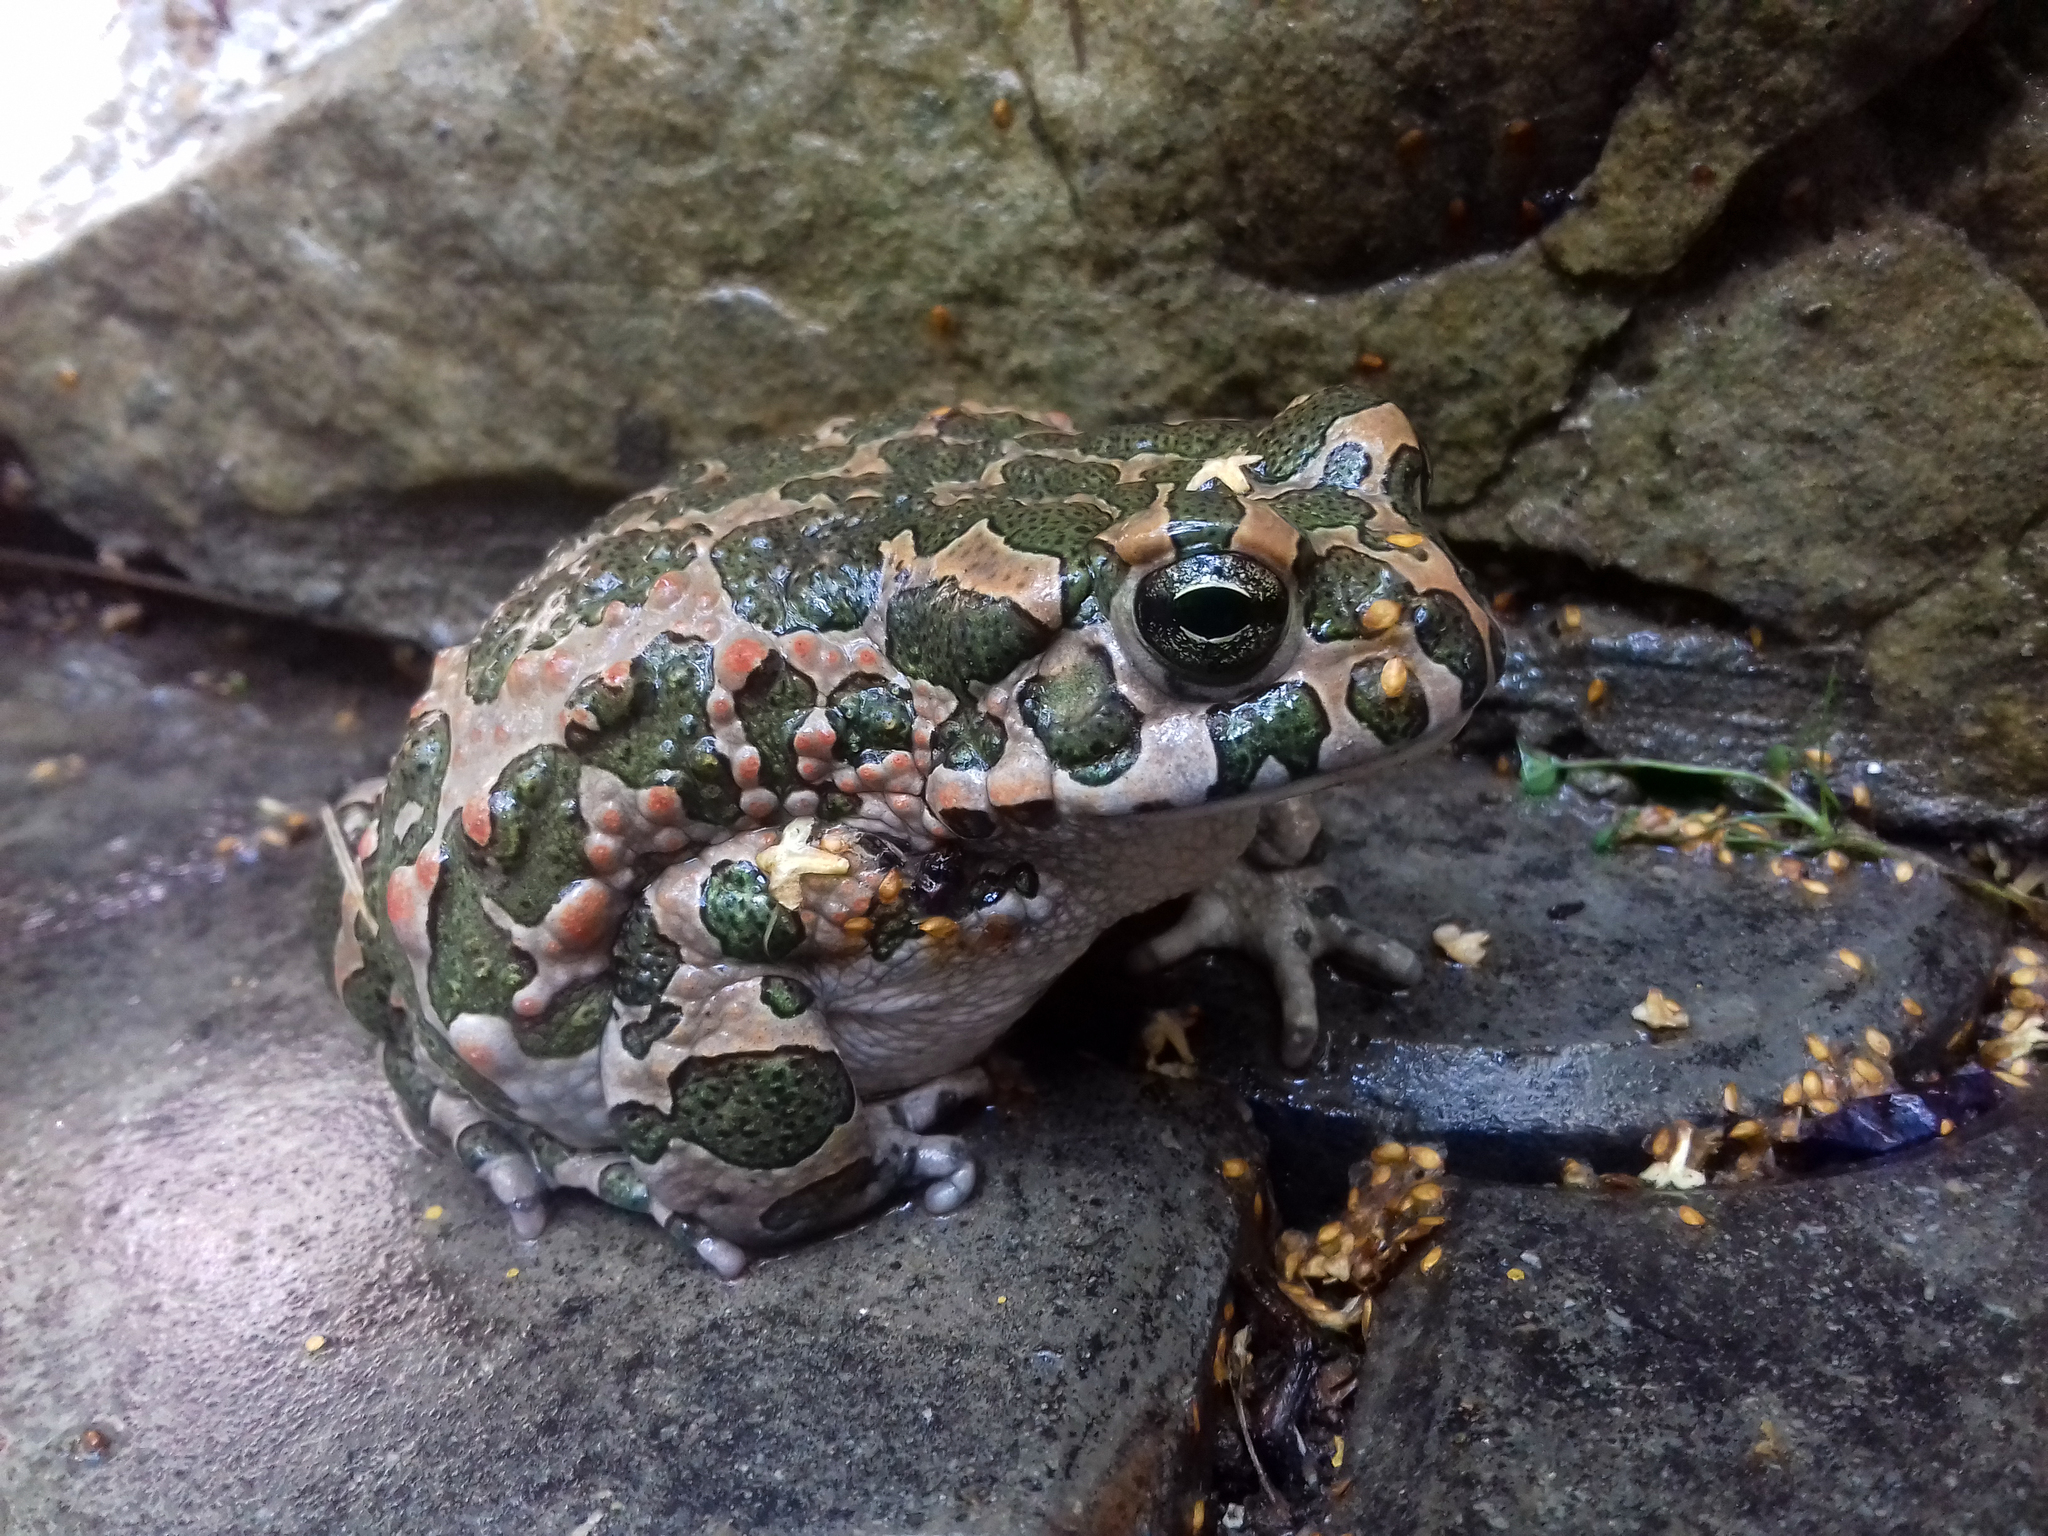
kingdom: Animalia
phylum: Chordata
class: Amphibia
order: Anura
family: Bufonidae
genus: Bufotes
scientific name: Bufotes viridis
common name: European green toad
